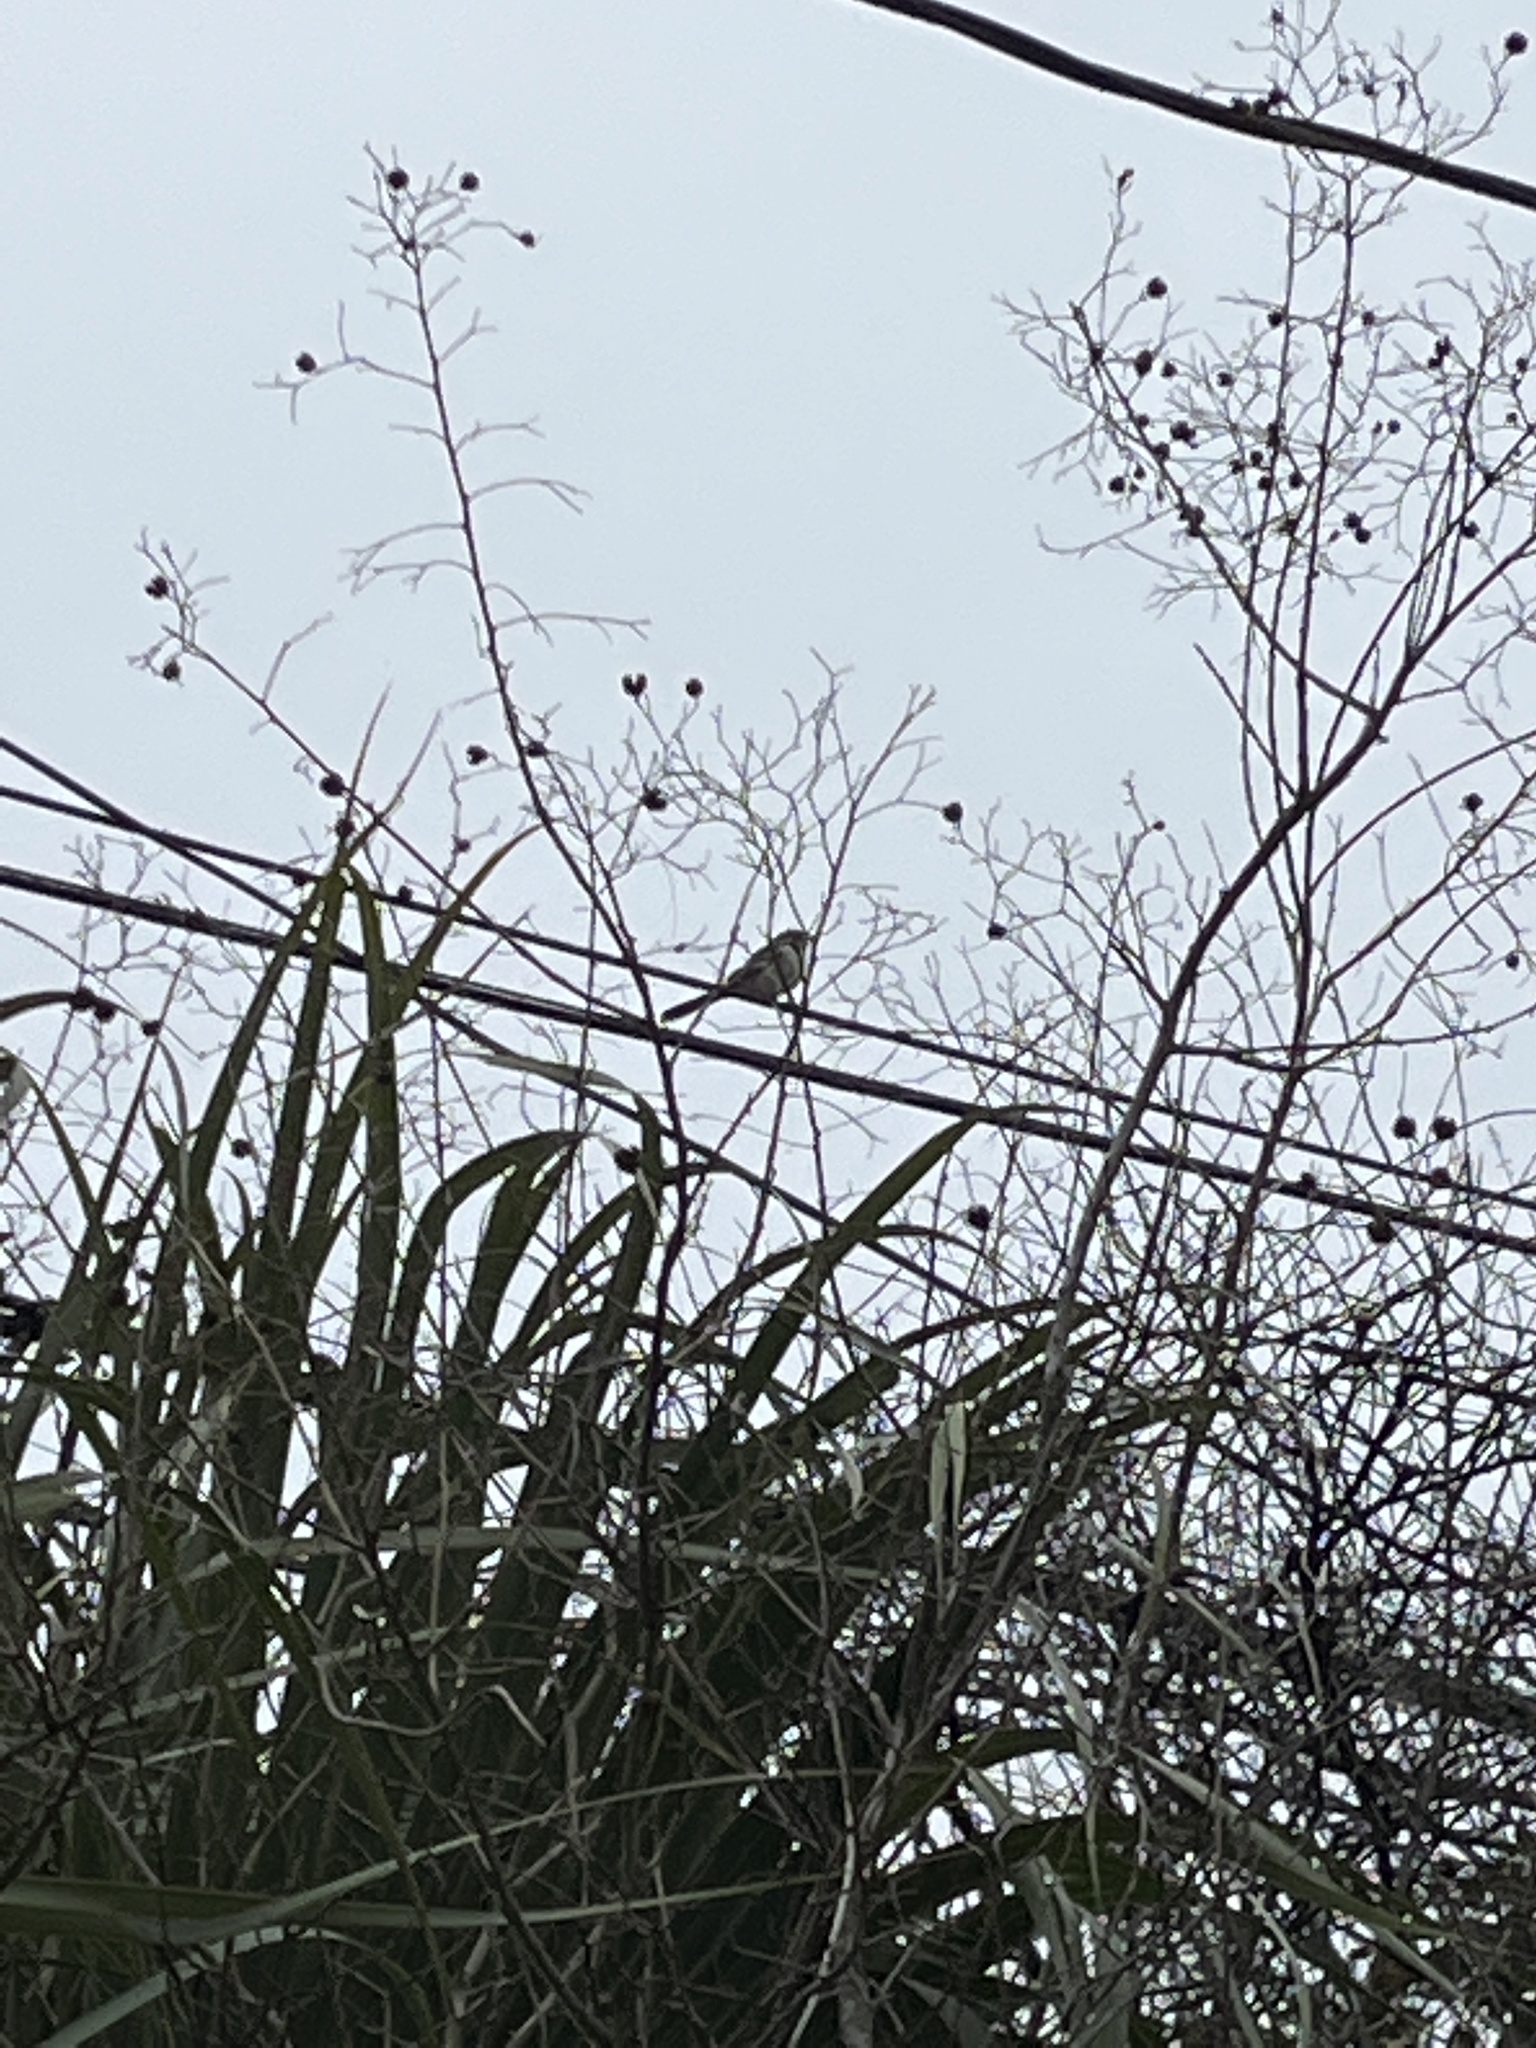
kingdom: Animalia
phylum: Chordata
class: Aves
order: Passeriformes
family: Mimidae
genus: Mimus
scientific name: Mimus polyglottos
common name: Northern mockingbird
